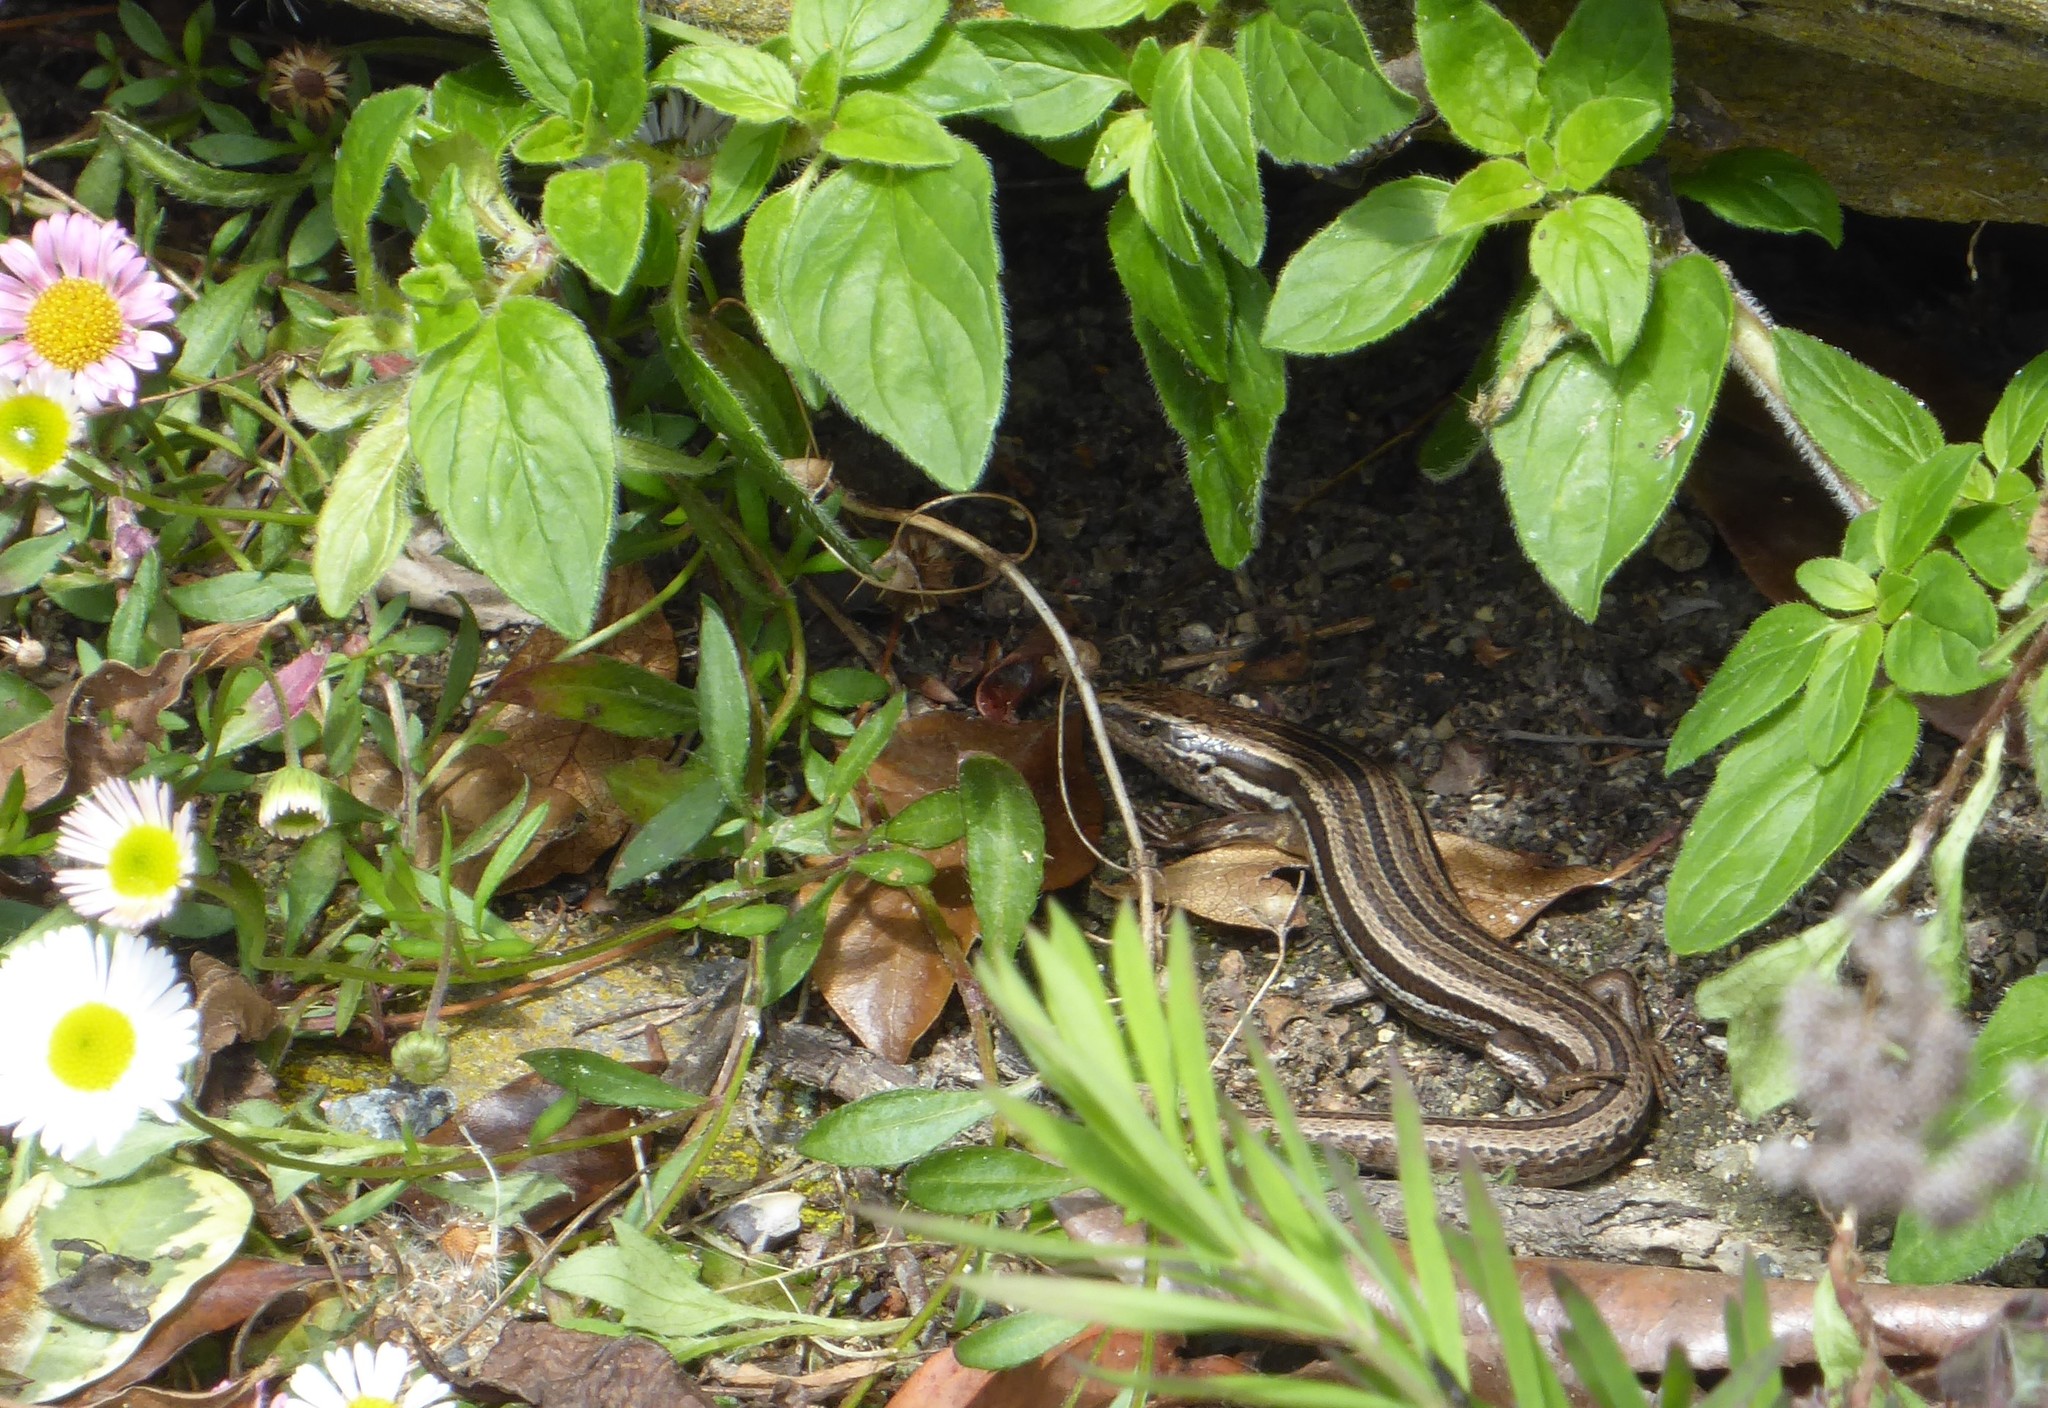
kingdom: Animalia
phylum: Chordata
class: Squamata
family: Scincidae
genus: Oligosoma
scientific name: Oligosoma polychroma
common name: Common new zealand skink
